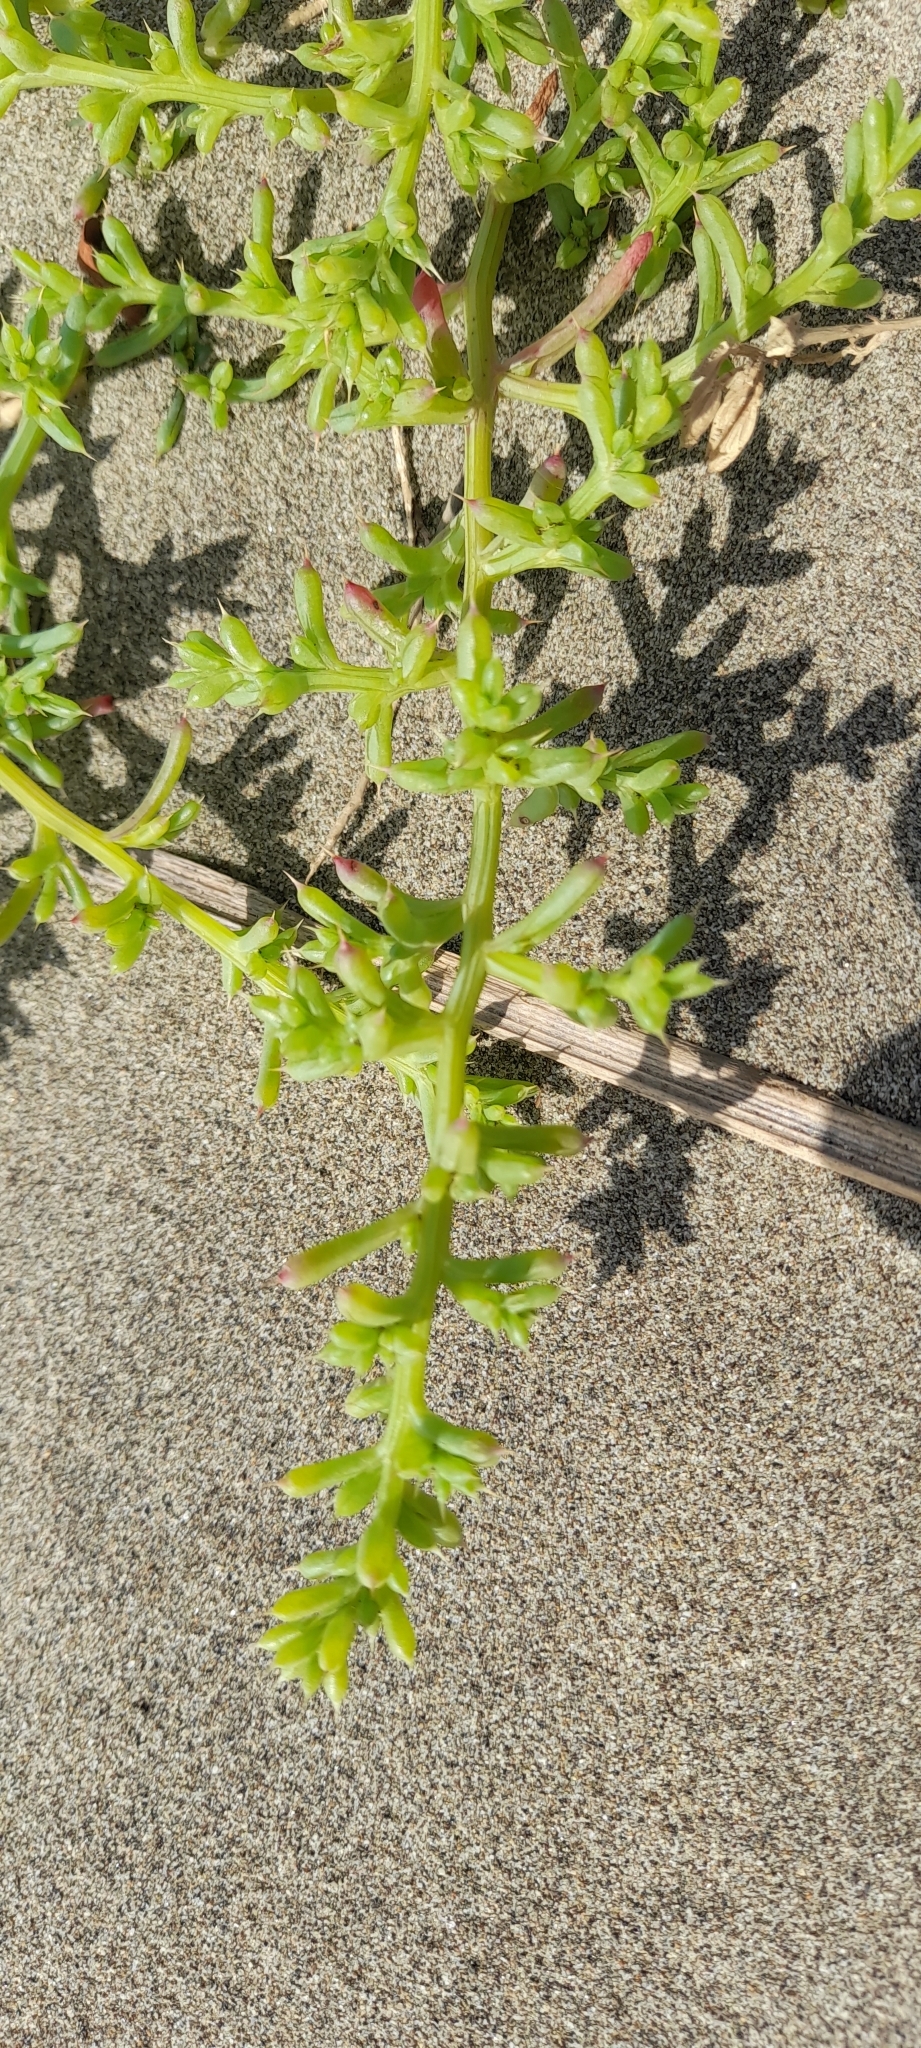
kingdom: Plantae
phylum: Tracheophyta
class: Magnoliopsida
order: Caryophyllales
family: Amaranthaceae
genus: Salsola
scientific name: Salsola squarrosa
